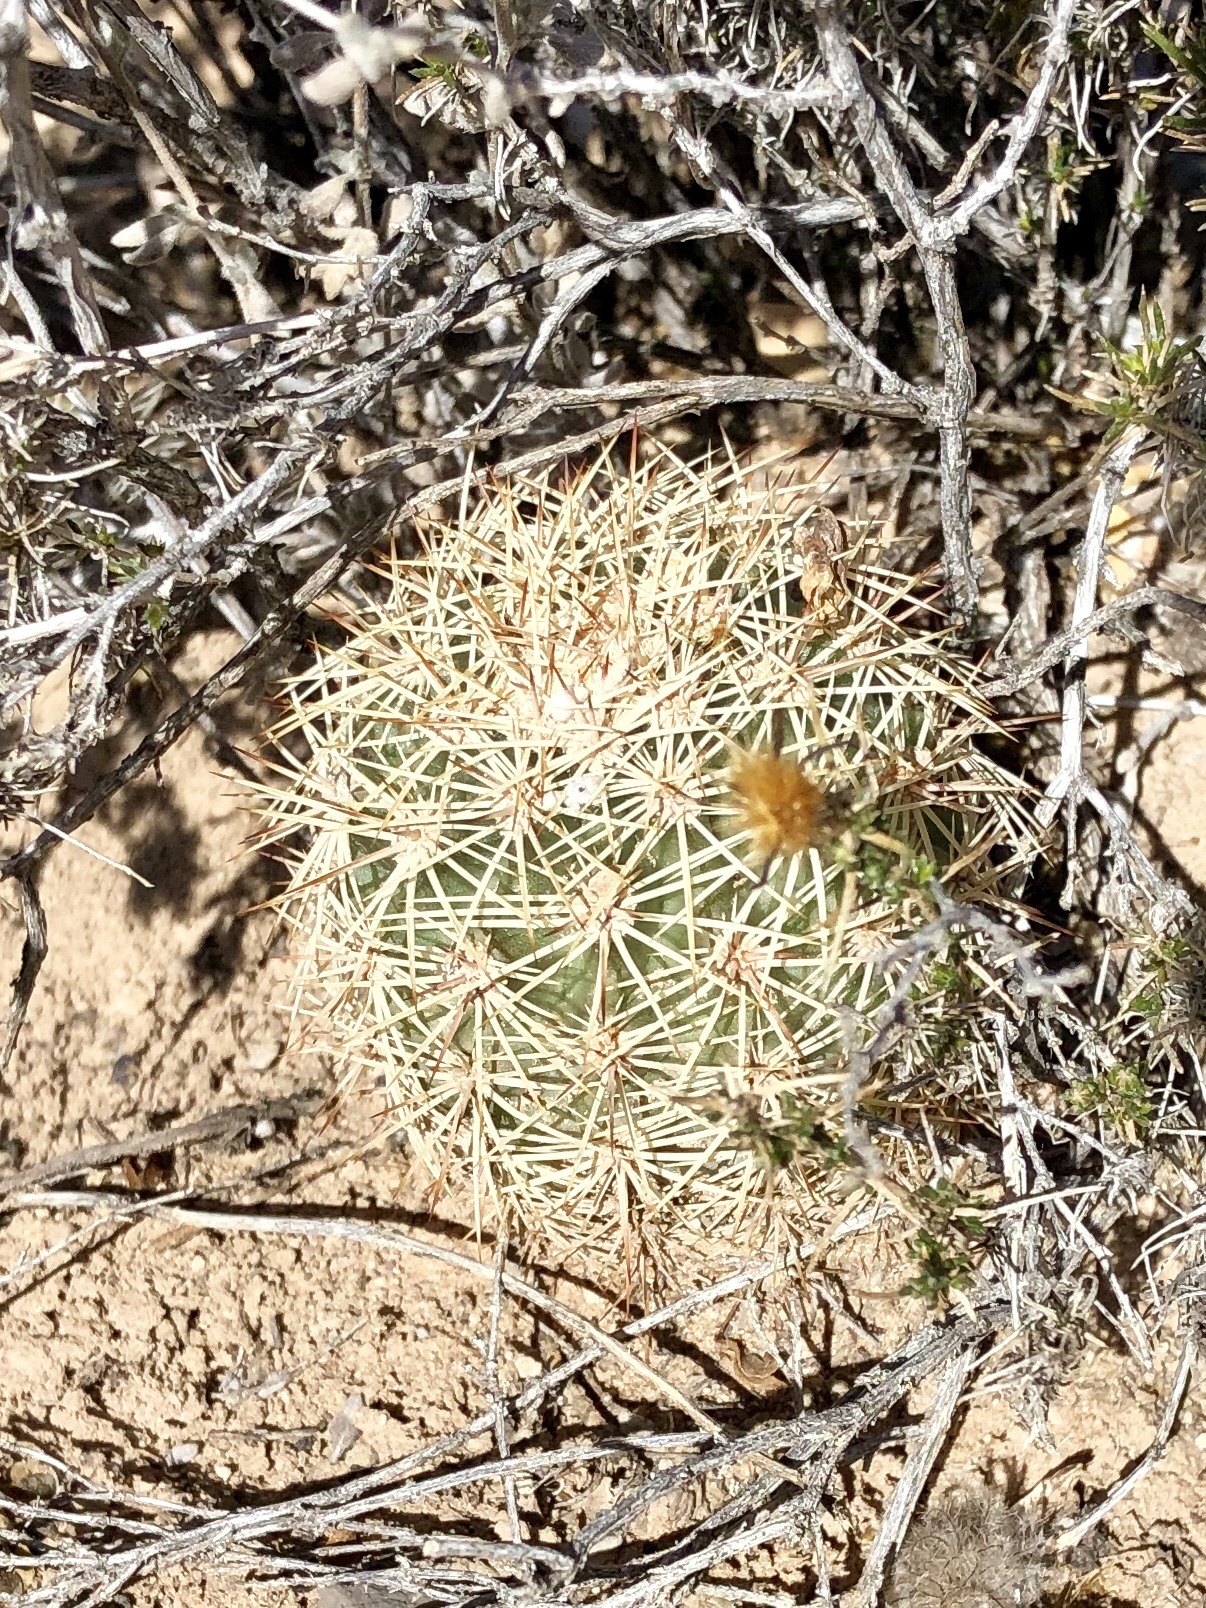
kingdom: Plantae
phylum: Tracheophyta
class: Magnoliopsida
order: Caryophyllales
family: Cactaceae
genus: Echinocereus
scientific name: Echinocereus roetteri
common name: Lloyd's hedgehog cactus
